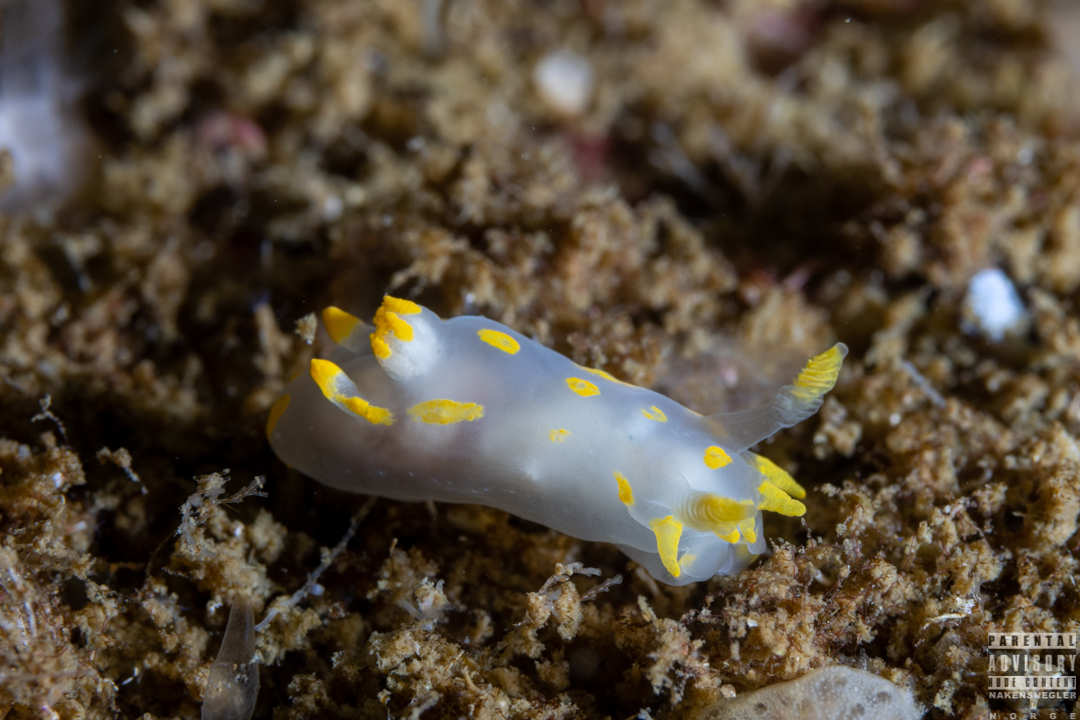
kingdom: Animalia
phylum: Mollusca
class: Gastropoda
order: Nudibranchia
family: Polyceridae
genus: Polycera
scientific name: Polycera quadrilineata
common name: Four-striped polycera
